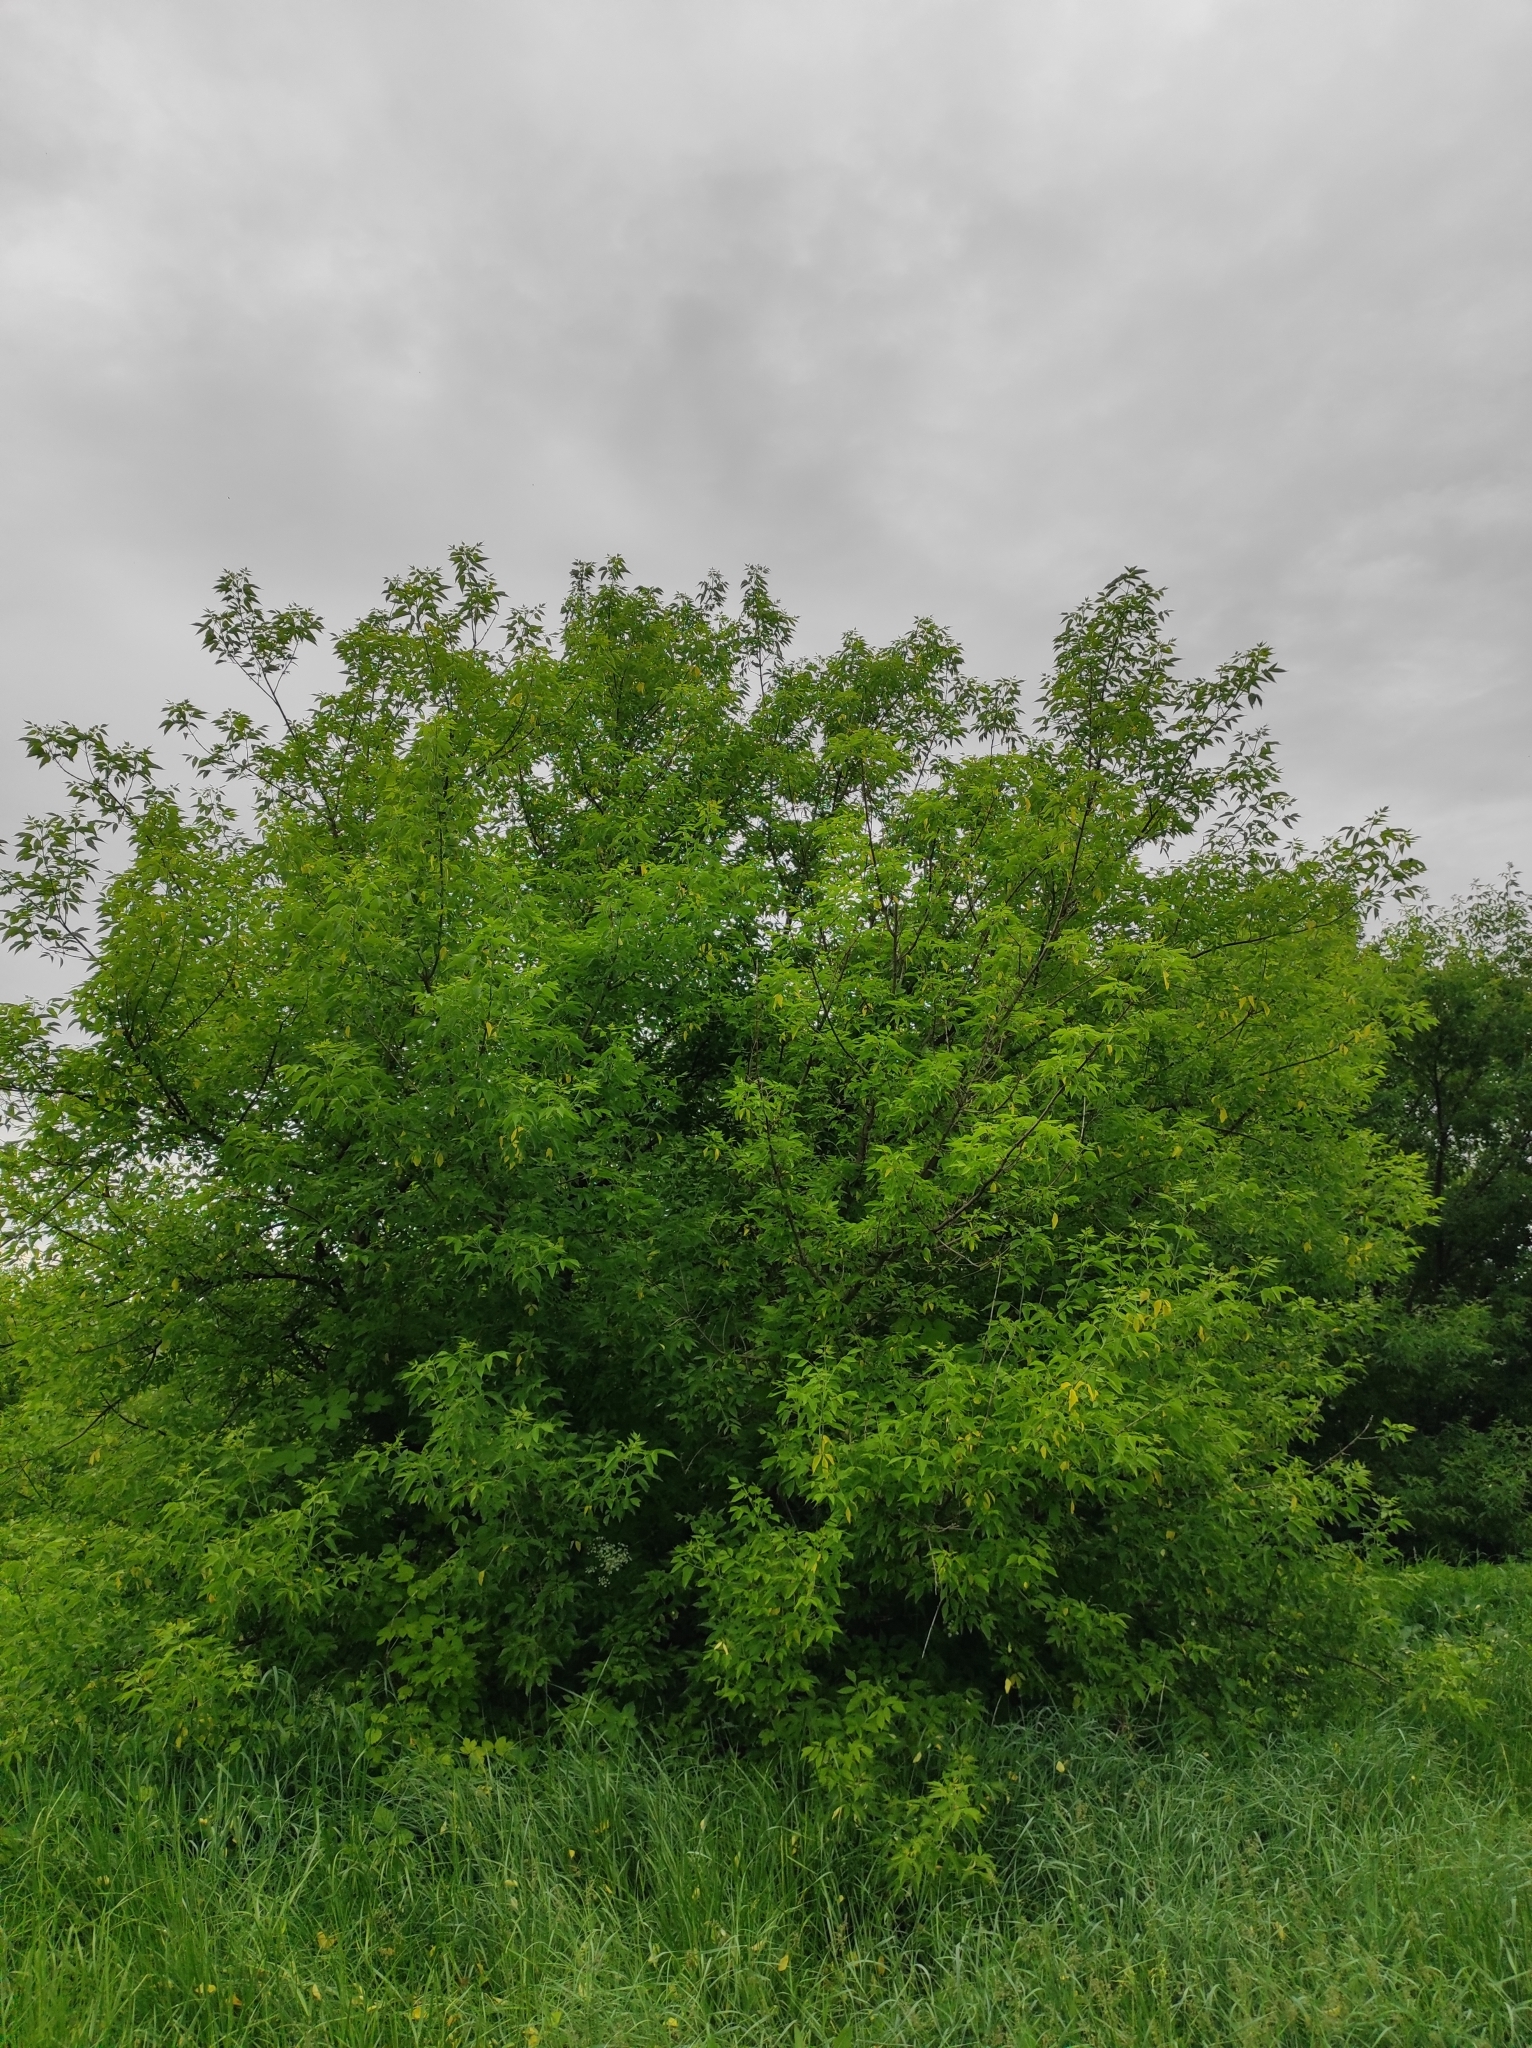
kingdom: Plantae
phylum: Tracheophyta
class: Magnoliopsida
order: Sapindales
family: Sapindaceae
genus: Acer
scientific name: Acer negundo
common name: Ashleaf maple
